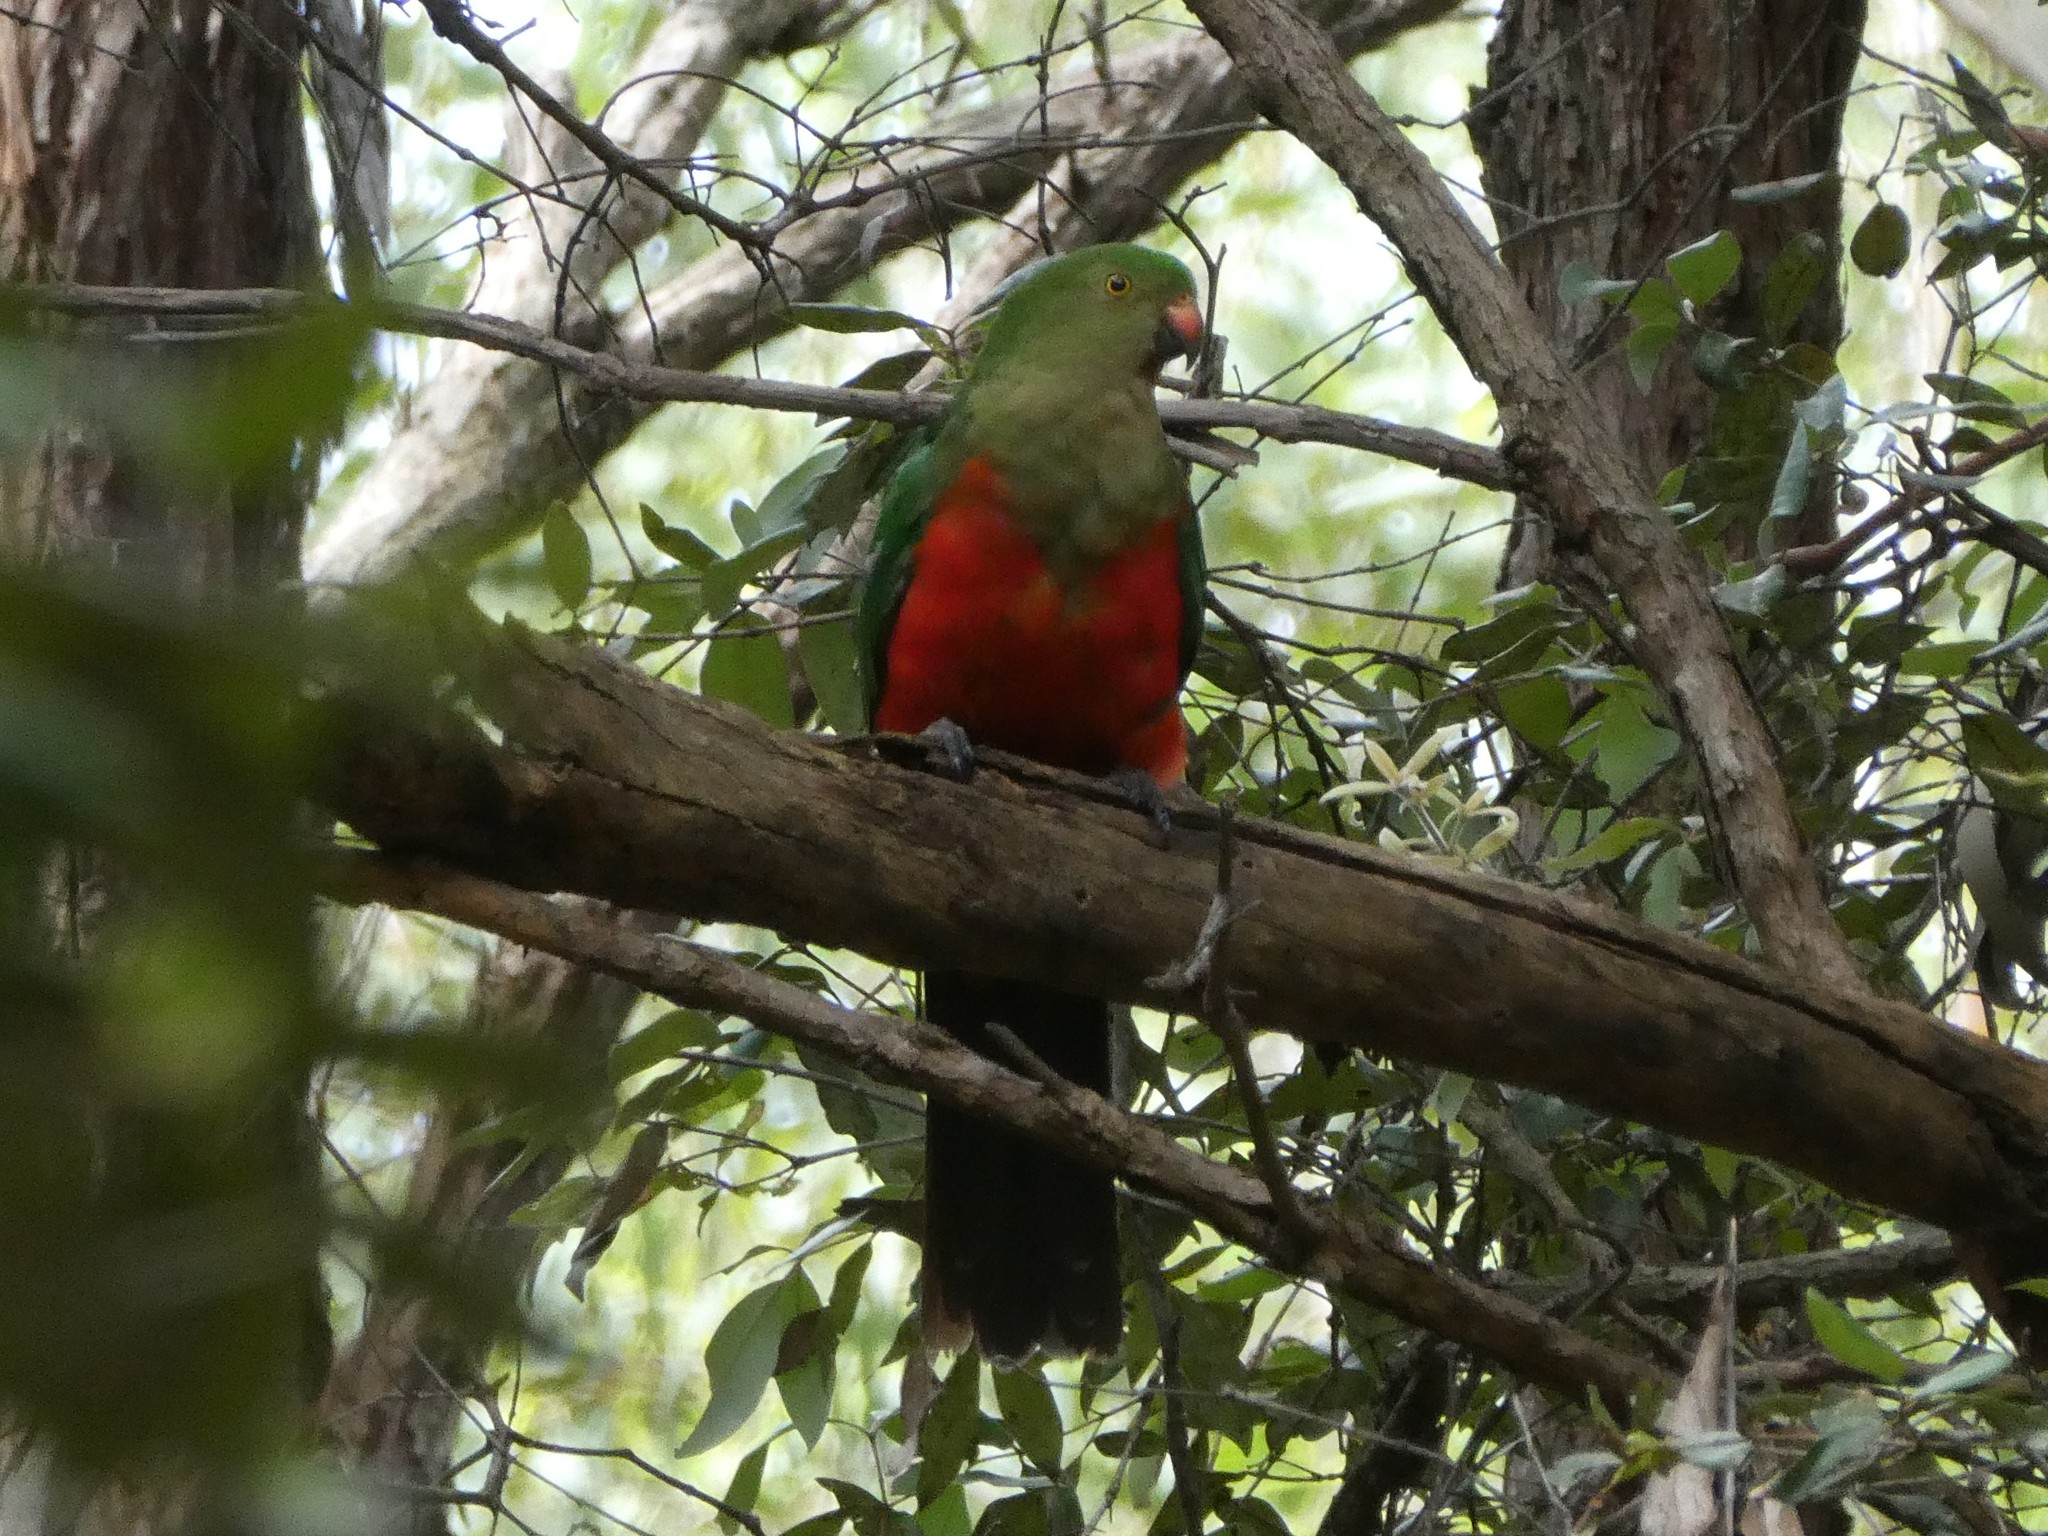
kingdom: Animalia
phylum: Chordata
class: Aves
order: Psittaciformes
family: Psittacidae
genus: Alisterus
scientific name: Alisterus scapularis
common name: Australian king parrot
